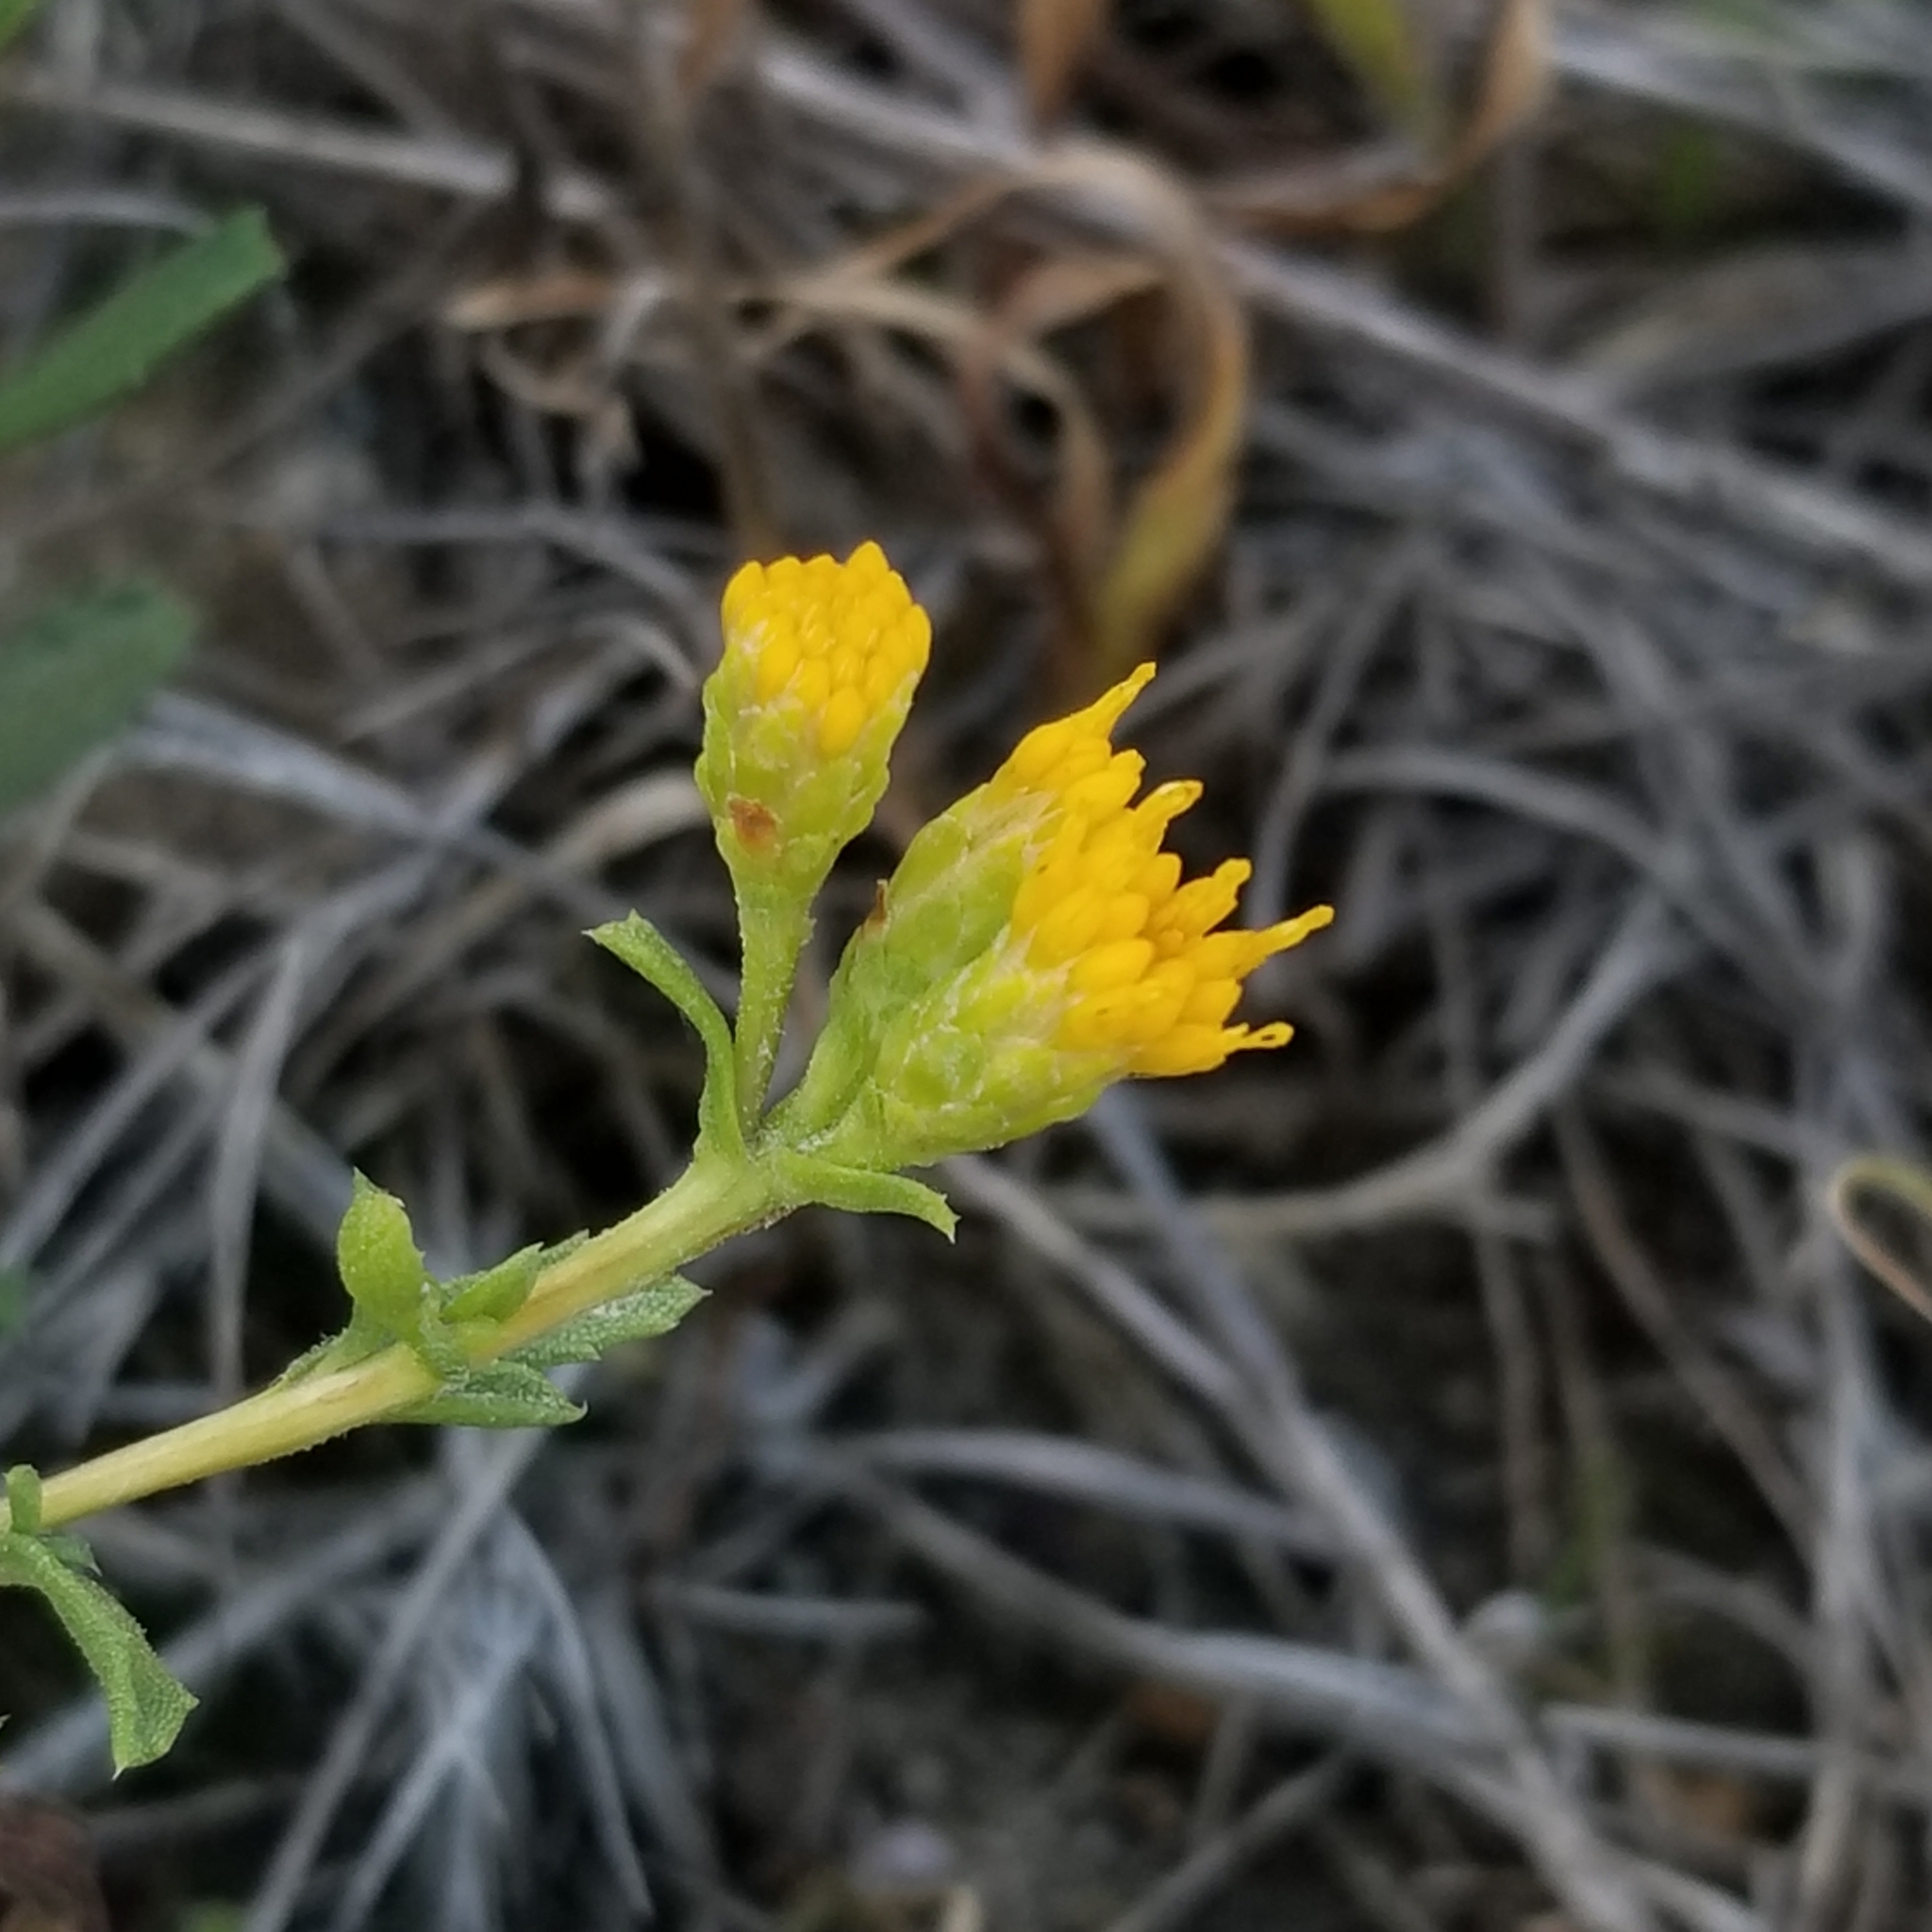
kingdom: Plantae
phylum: Tracheophyta
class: Magnoliopsida
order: Asterales
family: Asteraceae
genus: Isocoma
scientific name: Isocoma menziesii
